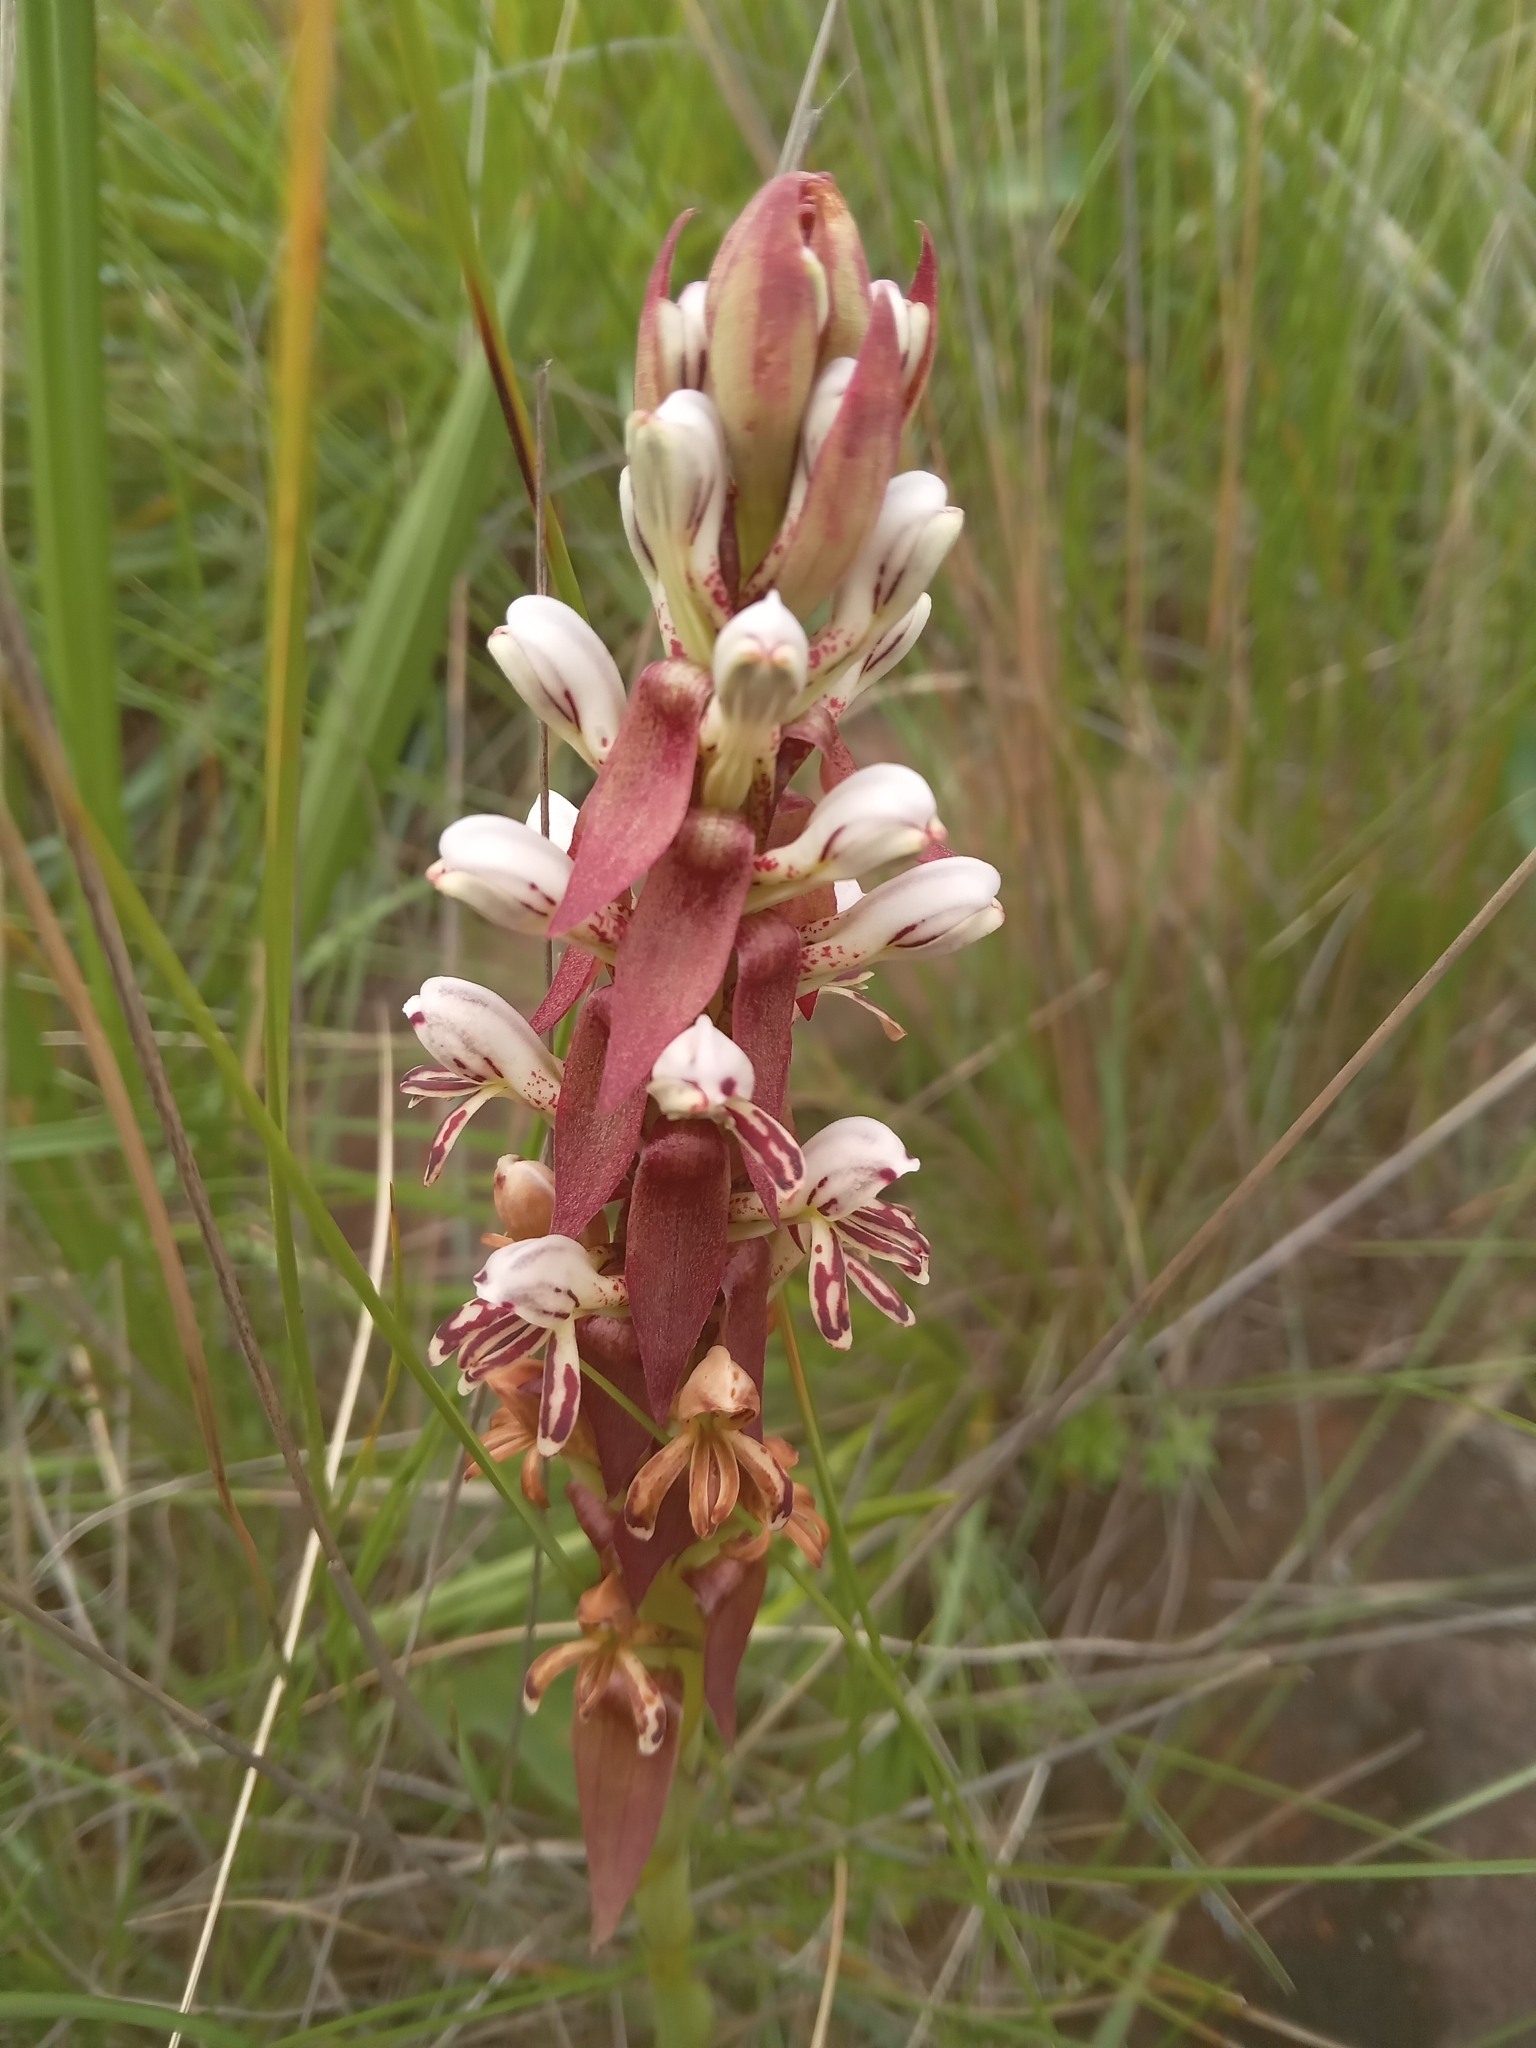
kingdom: Plantae
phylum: Tracheophyta
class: Liliopsida
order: Asparagales
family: Orchidaceae
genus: Satyrium
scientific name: Satyrium cristatum
